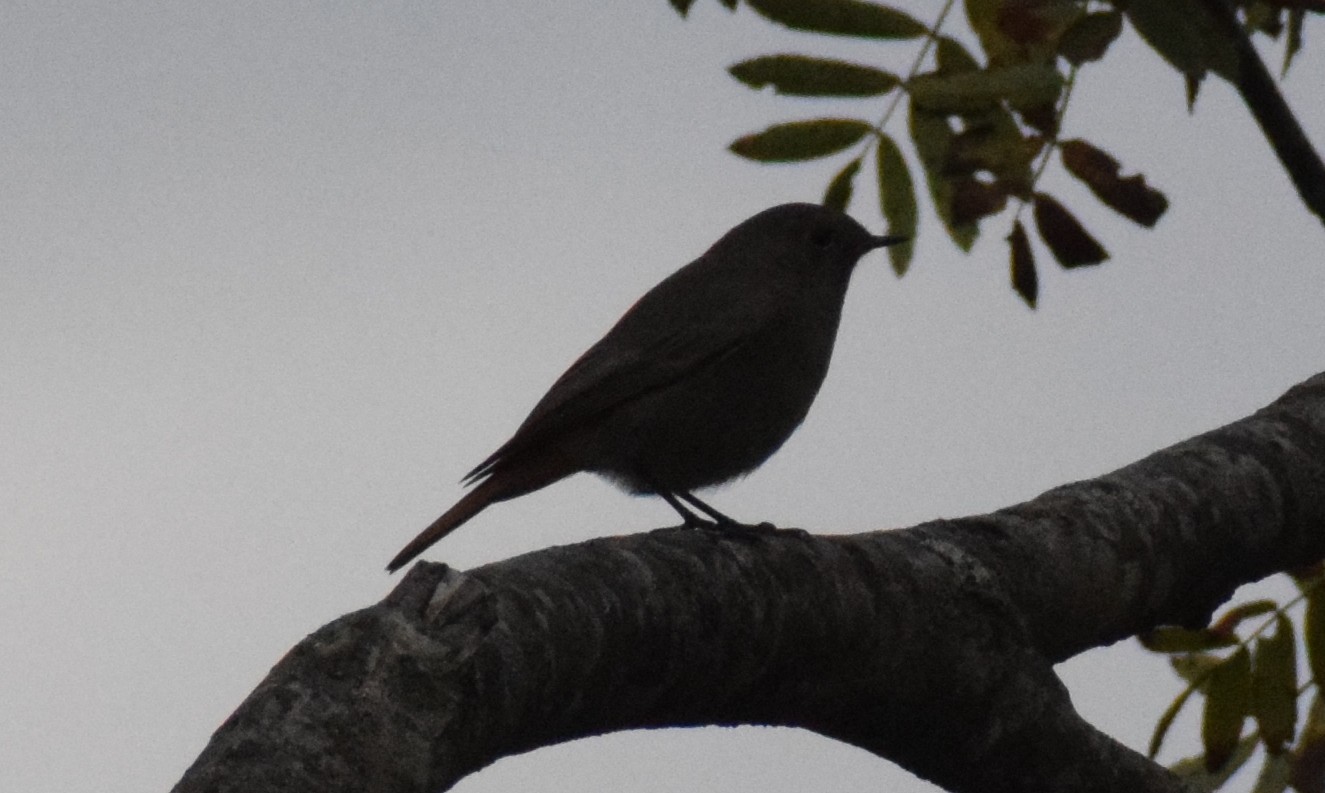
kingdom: Animalia
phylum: Chordata
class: Aves
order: Passeriformes
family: Muscicapidae
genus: Phoenicurus
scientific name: Phoenicurus ochruros
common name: Black redstart
